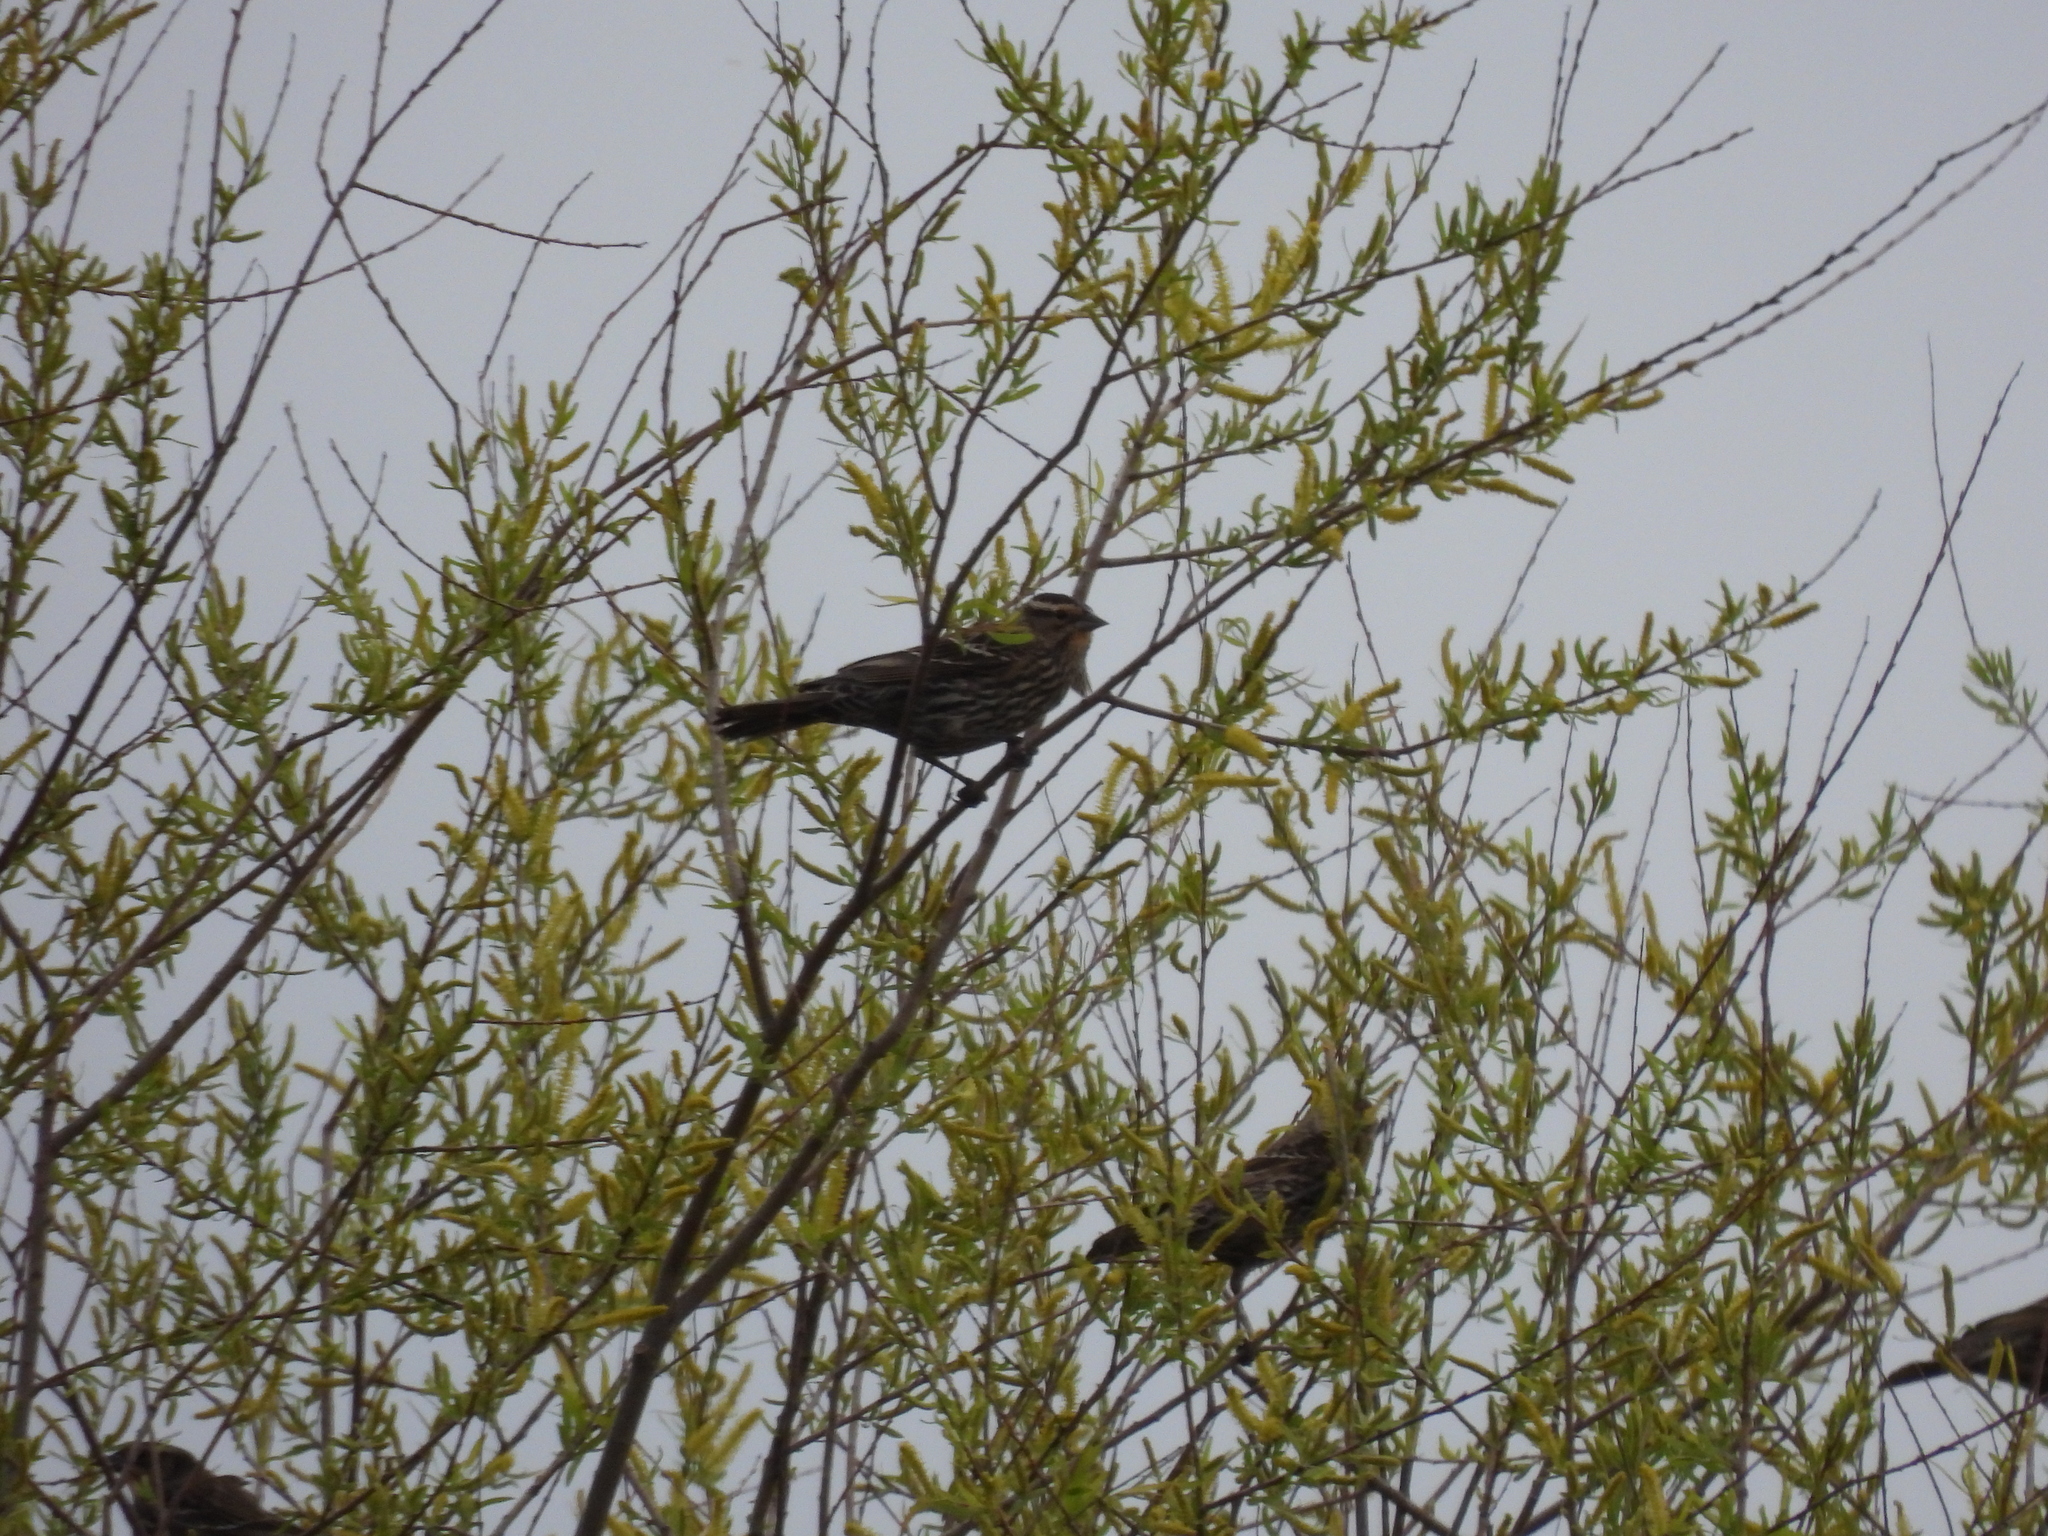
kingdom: Animalia
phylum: Chordata
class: Aves
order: Passeriformes
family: Icteridae
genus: Agelaius
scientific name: Agelaius phoeniceus
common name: Red-winged blackbird
